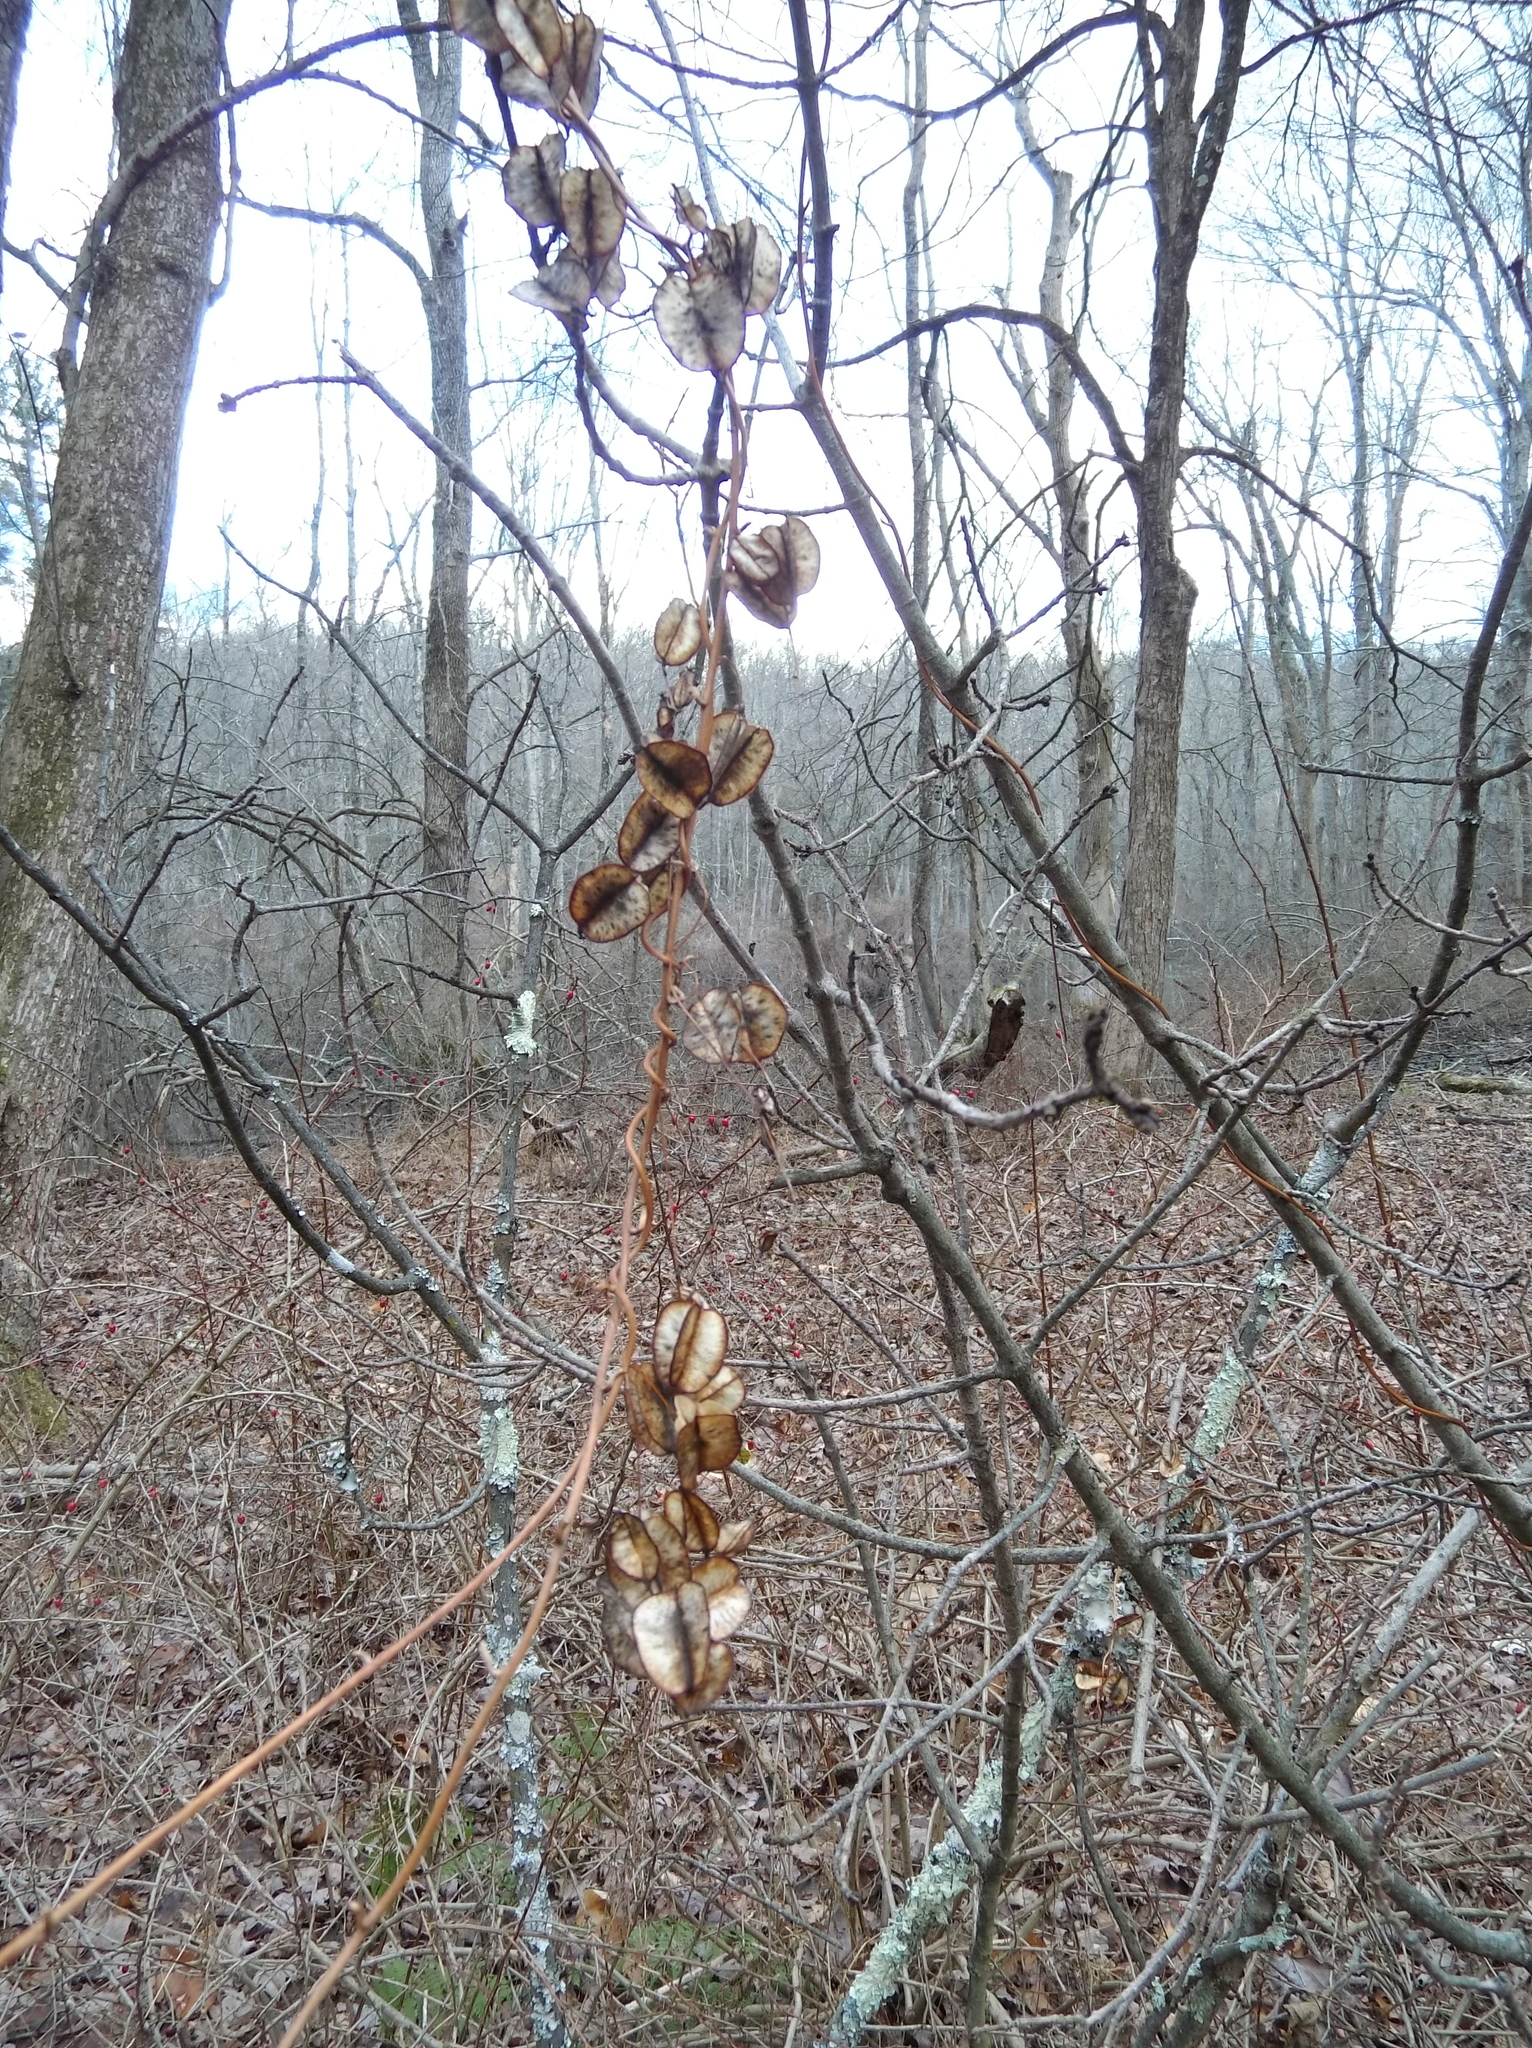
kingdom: Plantae
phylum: Tracheophyta
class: Liliopsida
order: Dioscoreales
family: Dioscoreaceae
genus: Dioscorea
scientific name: Dioscorea villosa
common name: Wild yam
